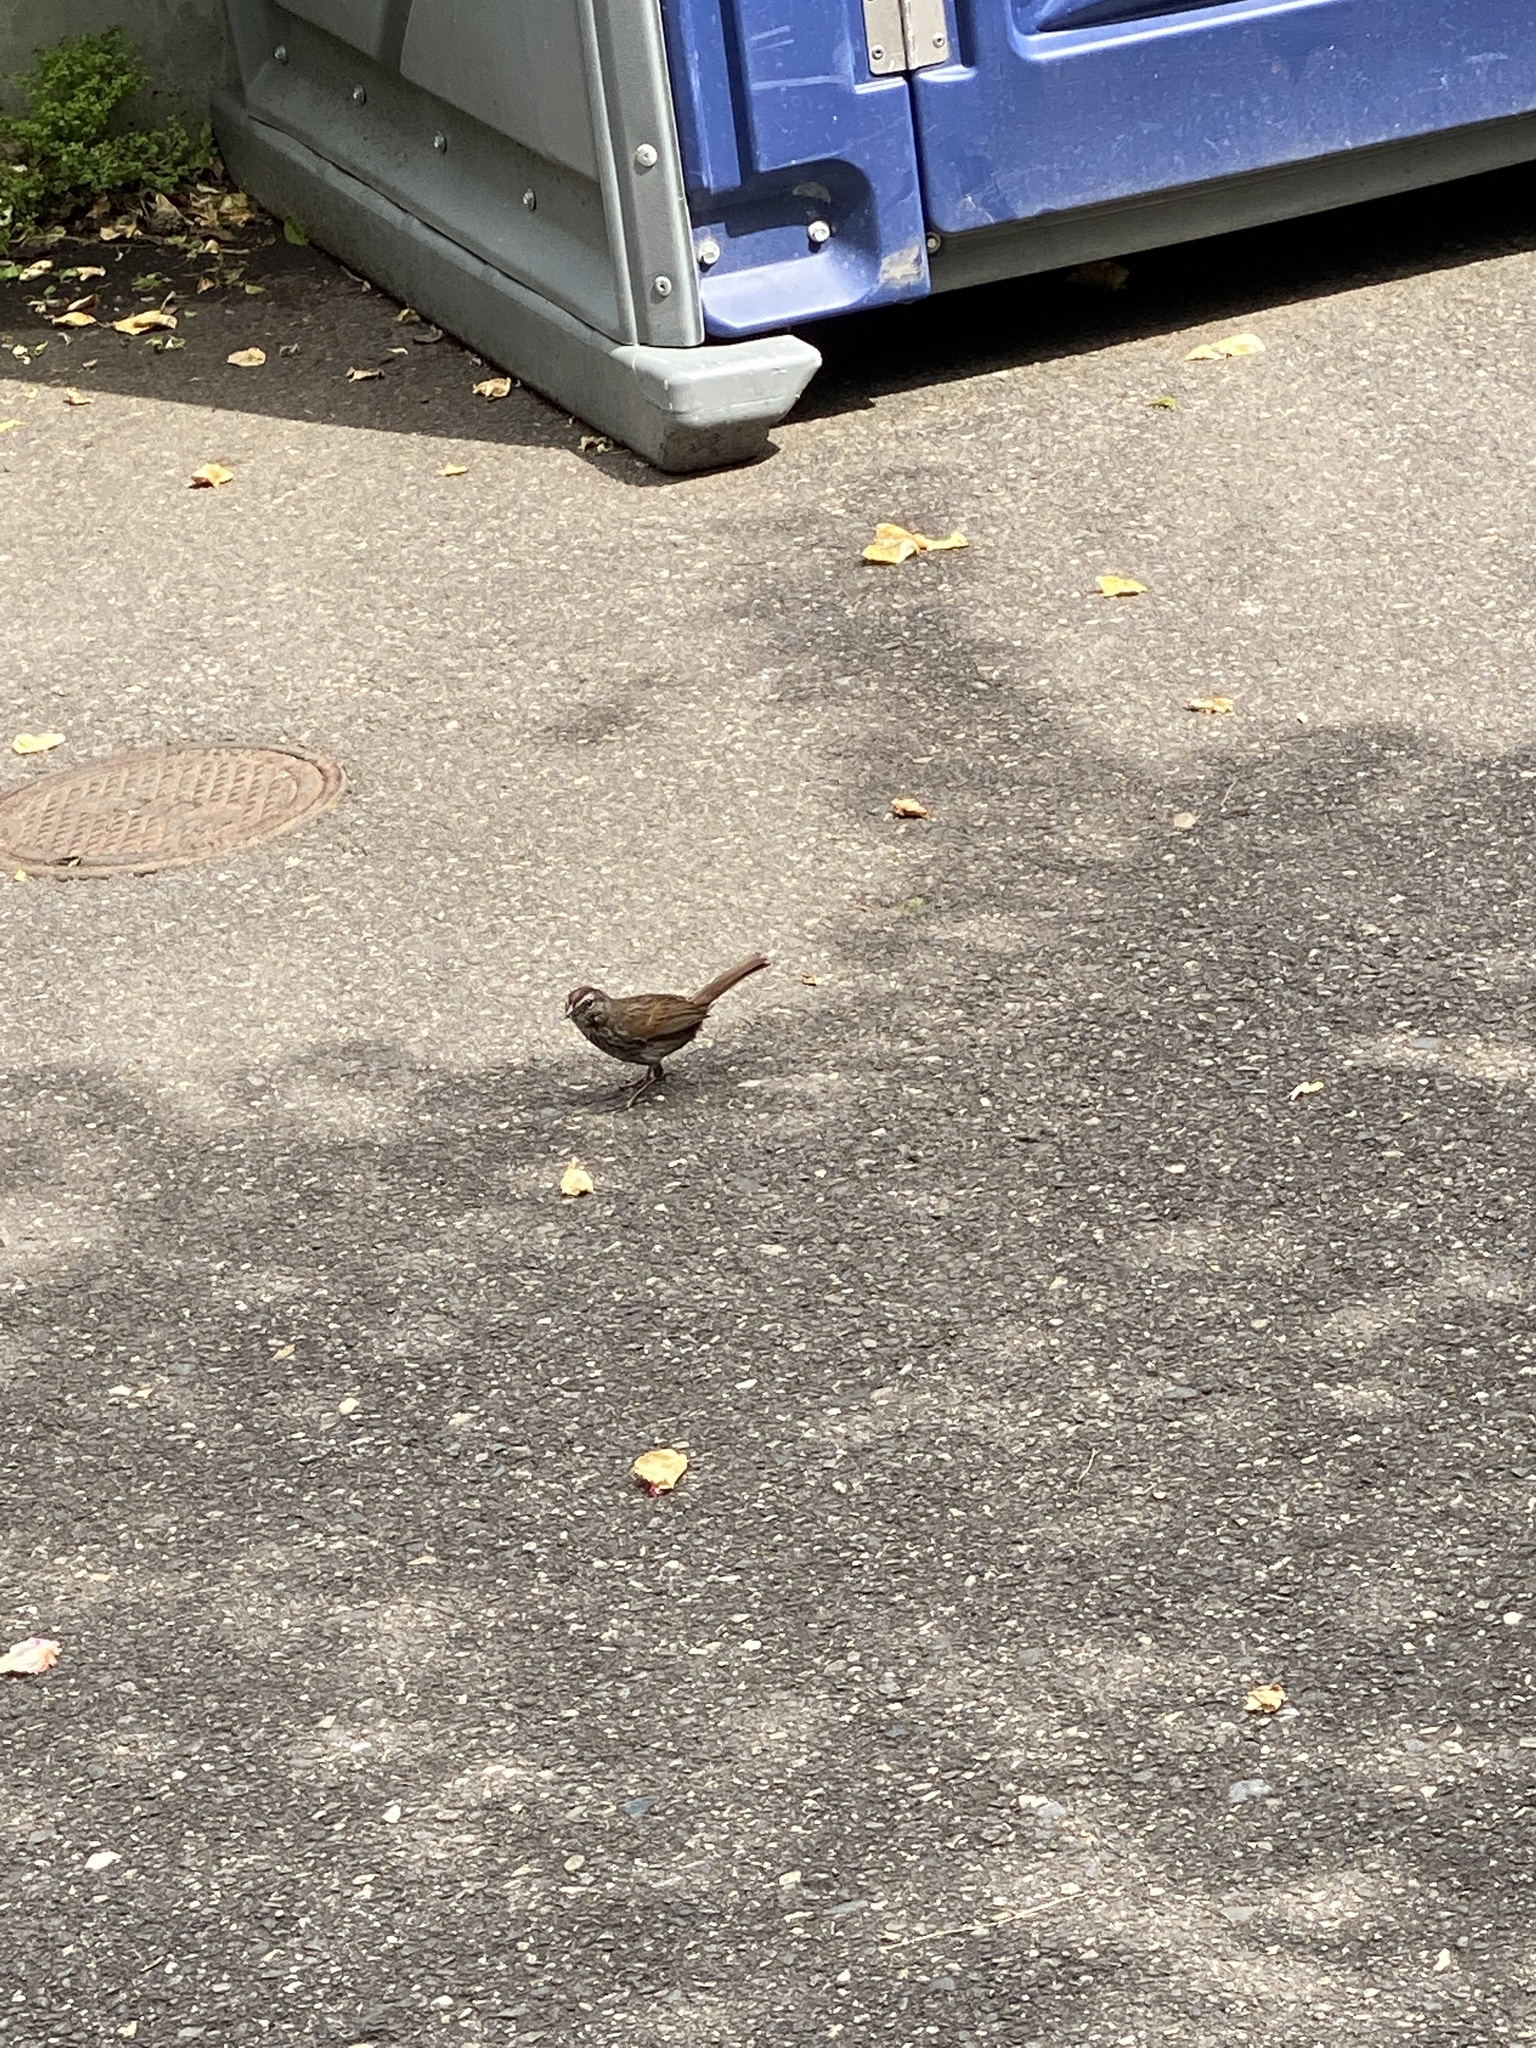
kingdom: Animalia
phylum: Chordata
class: Aves
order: Passeriformes
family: Passerellidae
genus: Melospiza
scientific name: Melospiza melodia
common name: Song sparrow
